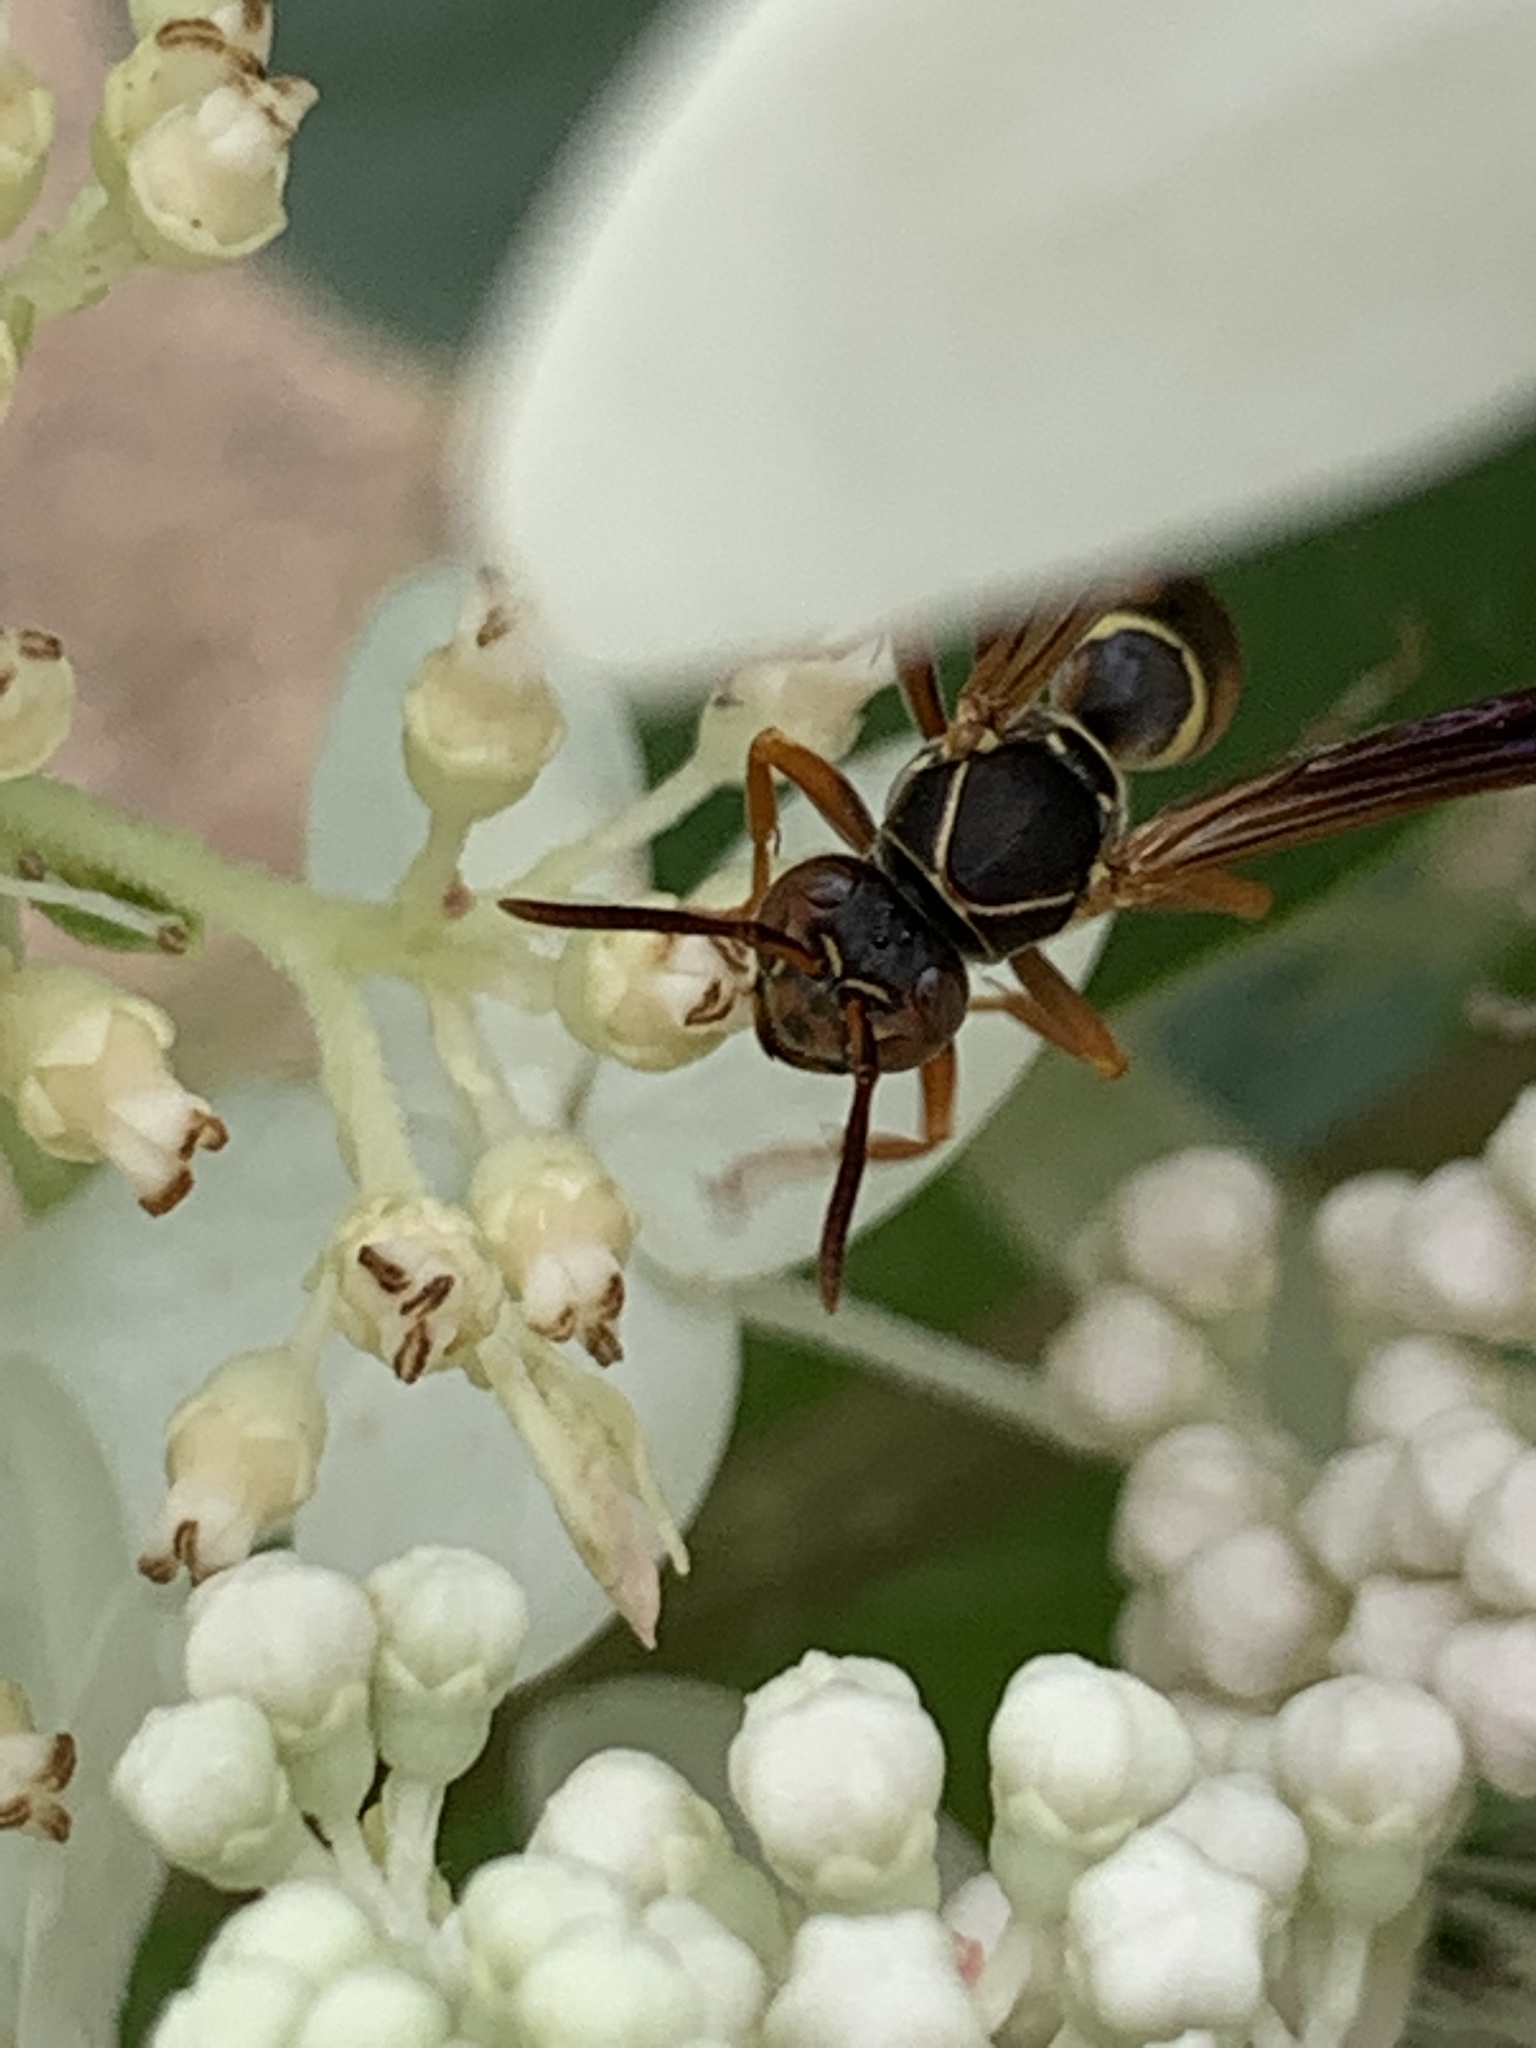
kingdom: Animalia
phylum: Arthropoda
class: Insecta
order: Hymenoptera
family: Eumenidae
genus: Polistes
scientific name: Polistes fuscatus
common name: Dark paper wasp
